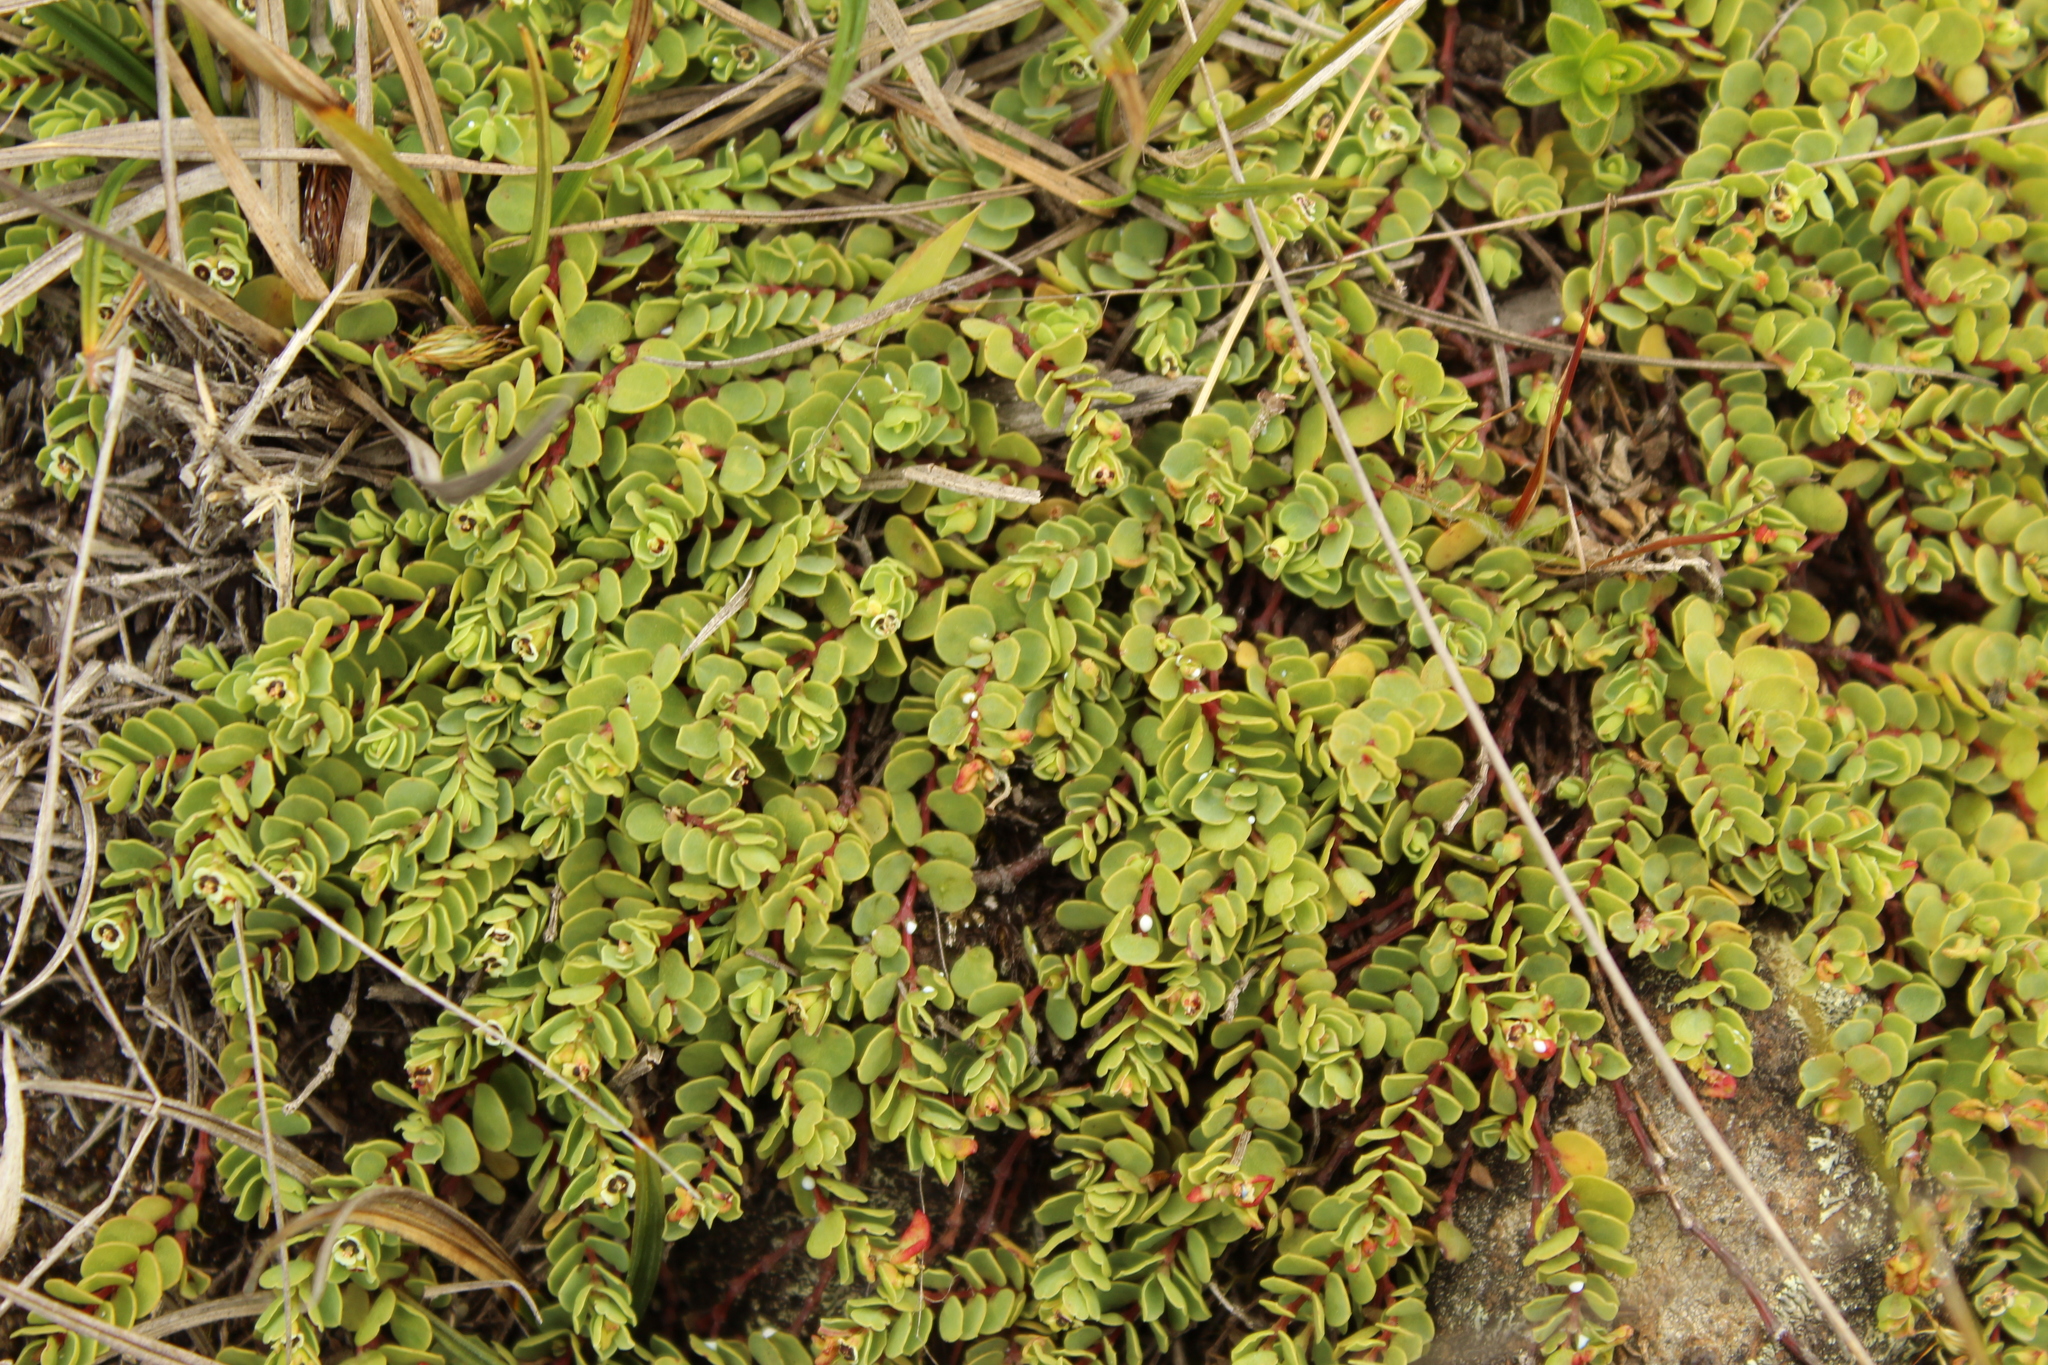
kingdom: Plantae
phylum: Tracheophyta
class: Magnoliopsida
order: Malpighiales
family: Euphorbiaceae
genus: Euphorbia
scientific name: Euphorbia orbiculata
